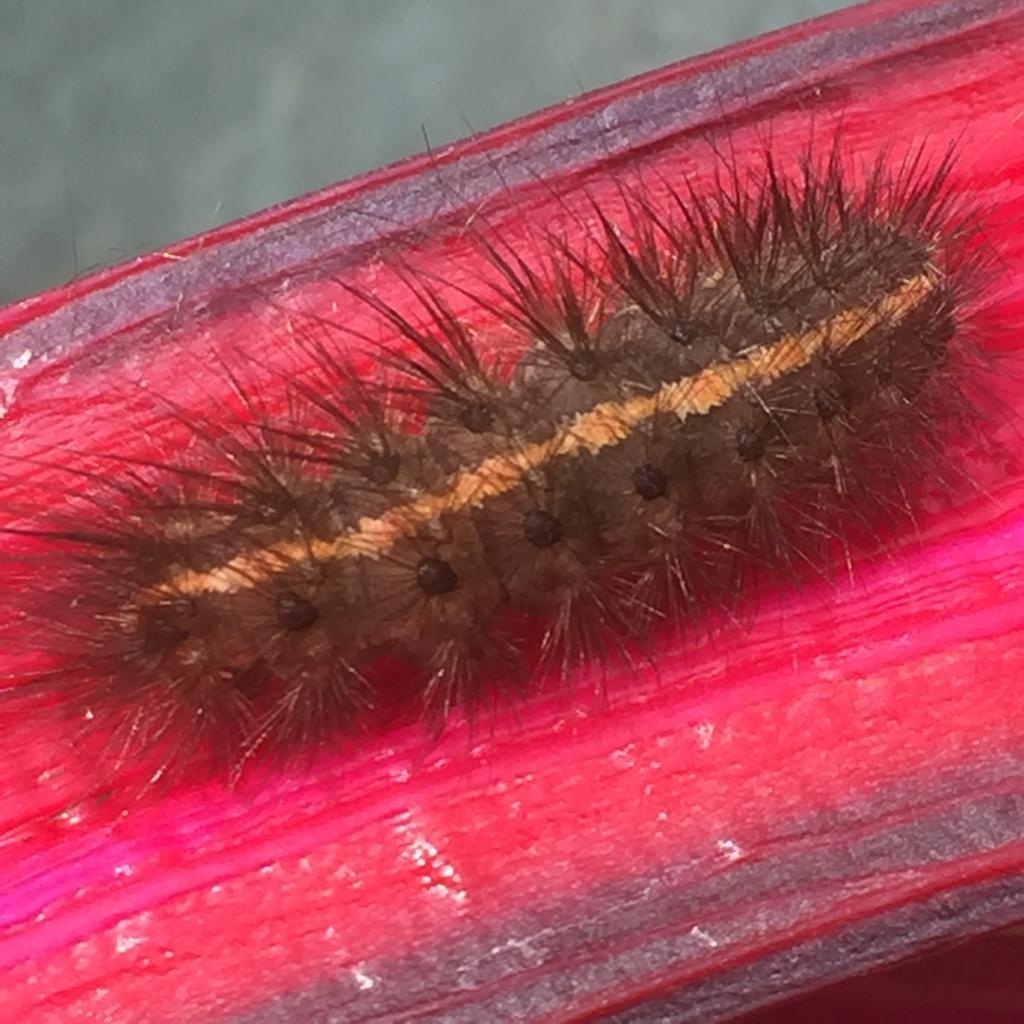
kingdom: Animalia
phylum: Arthropoda
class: Insecta
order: Lepidoptera
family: Erebidae
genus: Spilosoma
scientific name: Spilosoma lubricipeda
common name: White ermine
